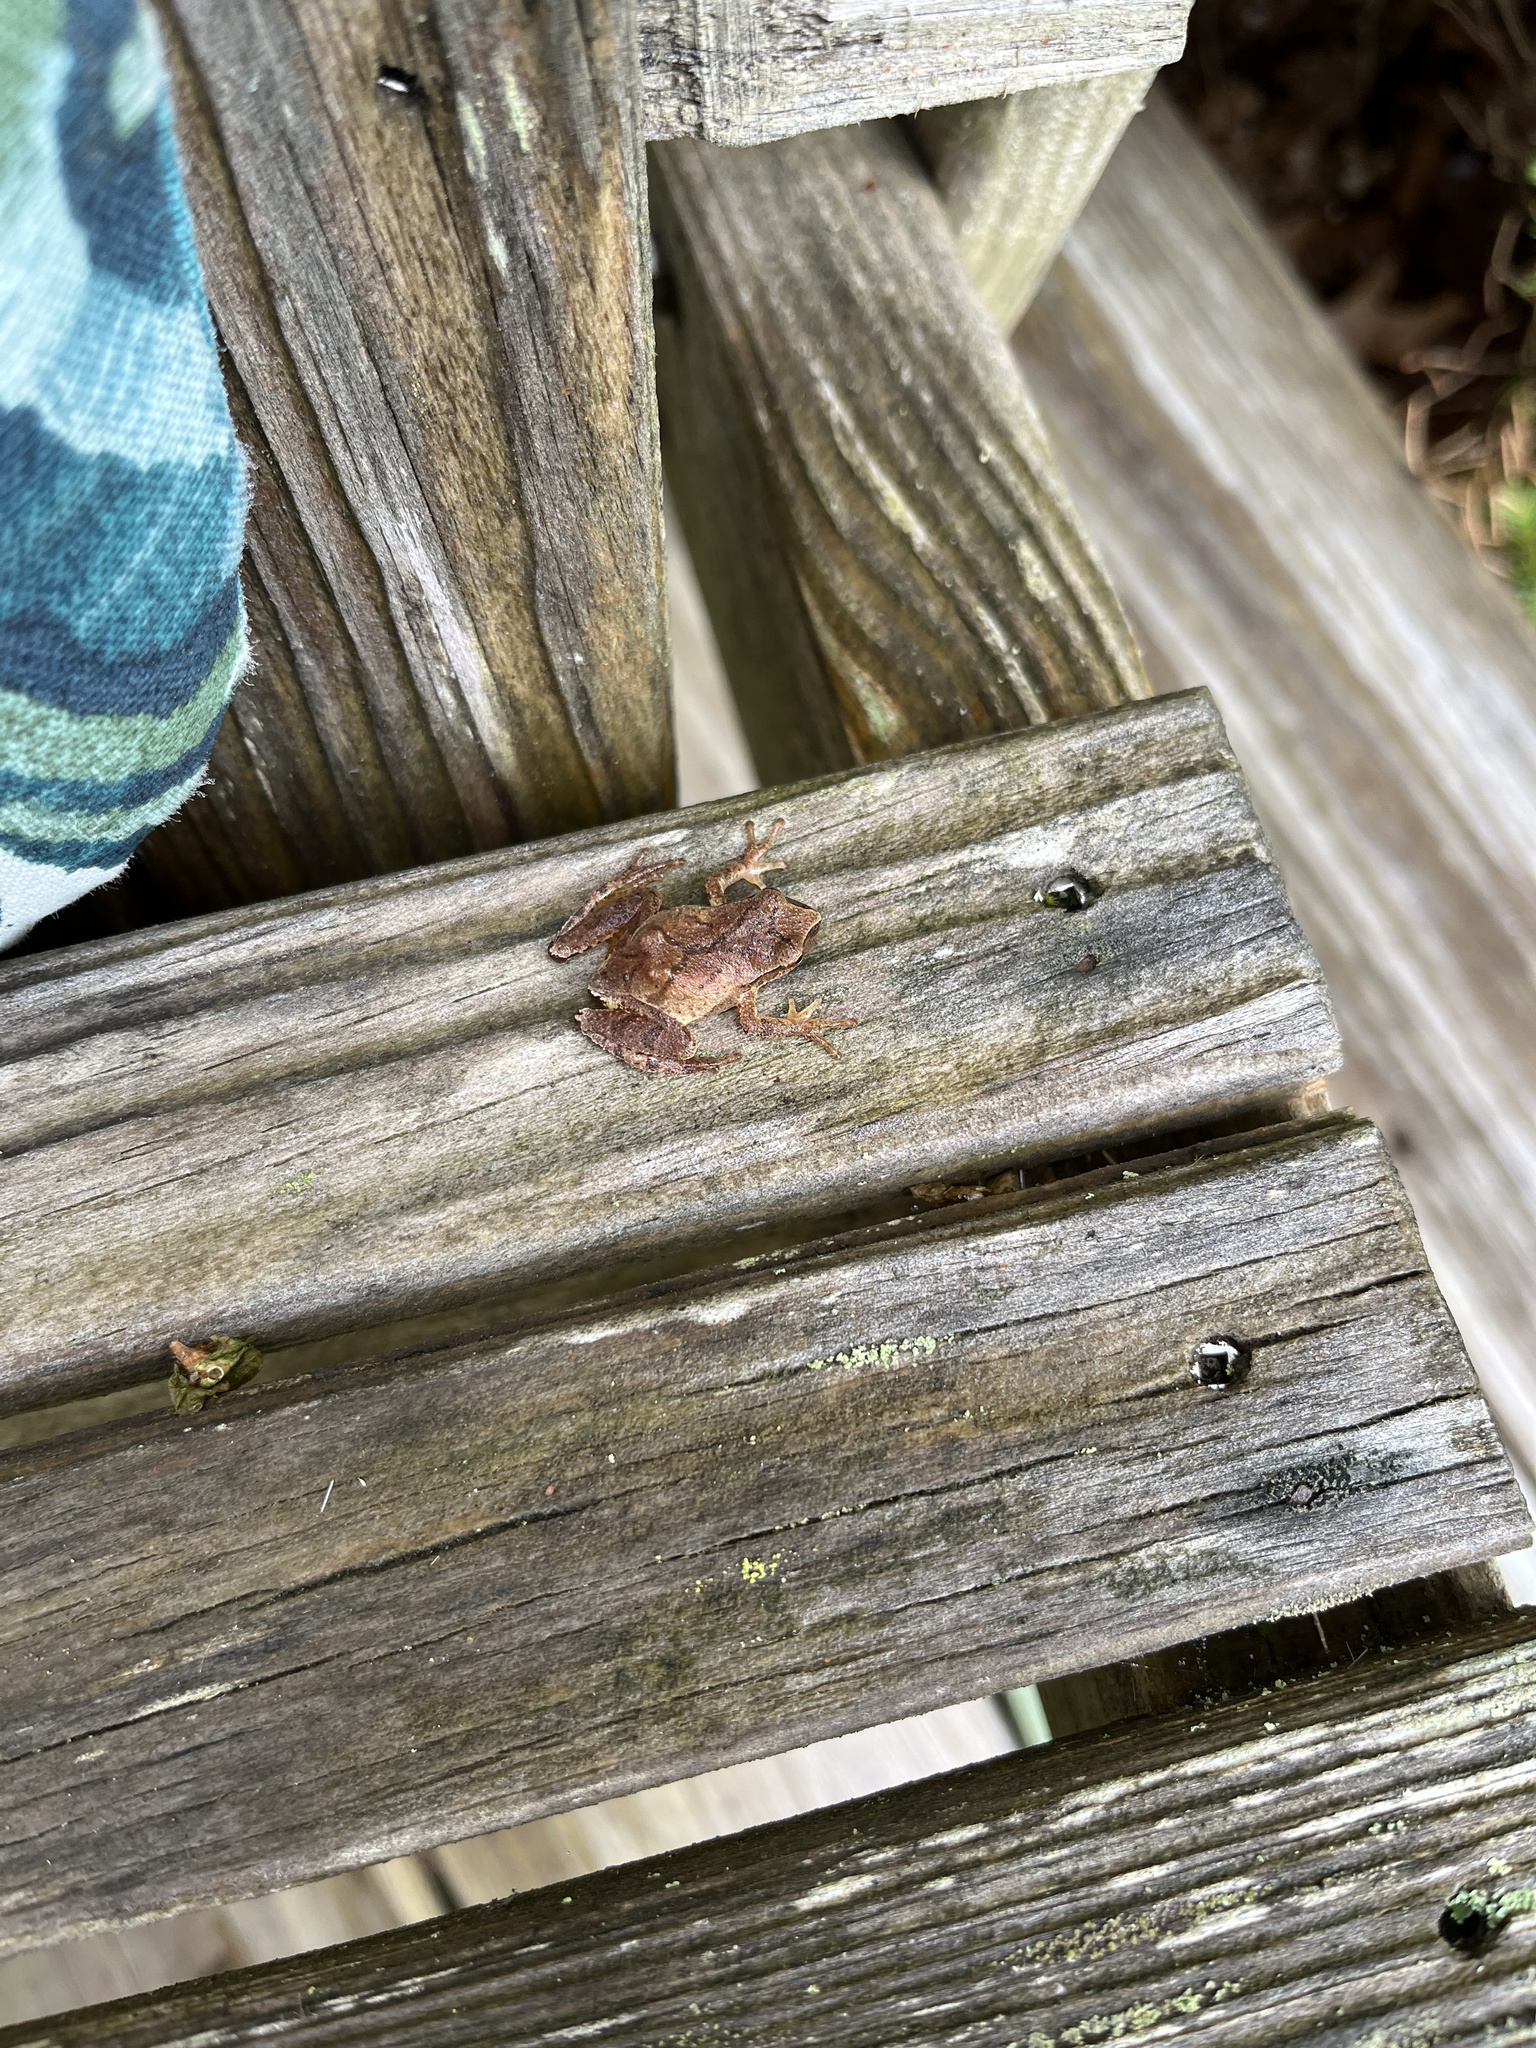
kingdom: Animalia
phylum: Chordata
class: Amphibia
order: Anura
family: Hylidae
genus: Pseudacris
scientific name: Pseudacris crucifer
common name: Spring peeper
